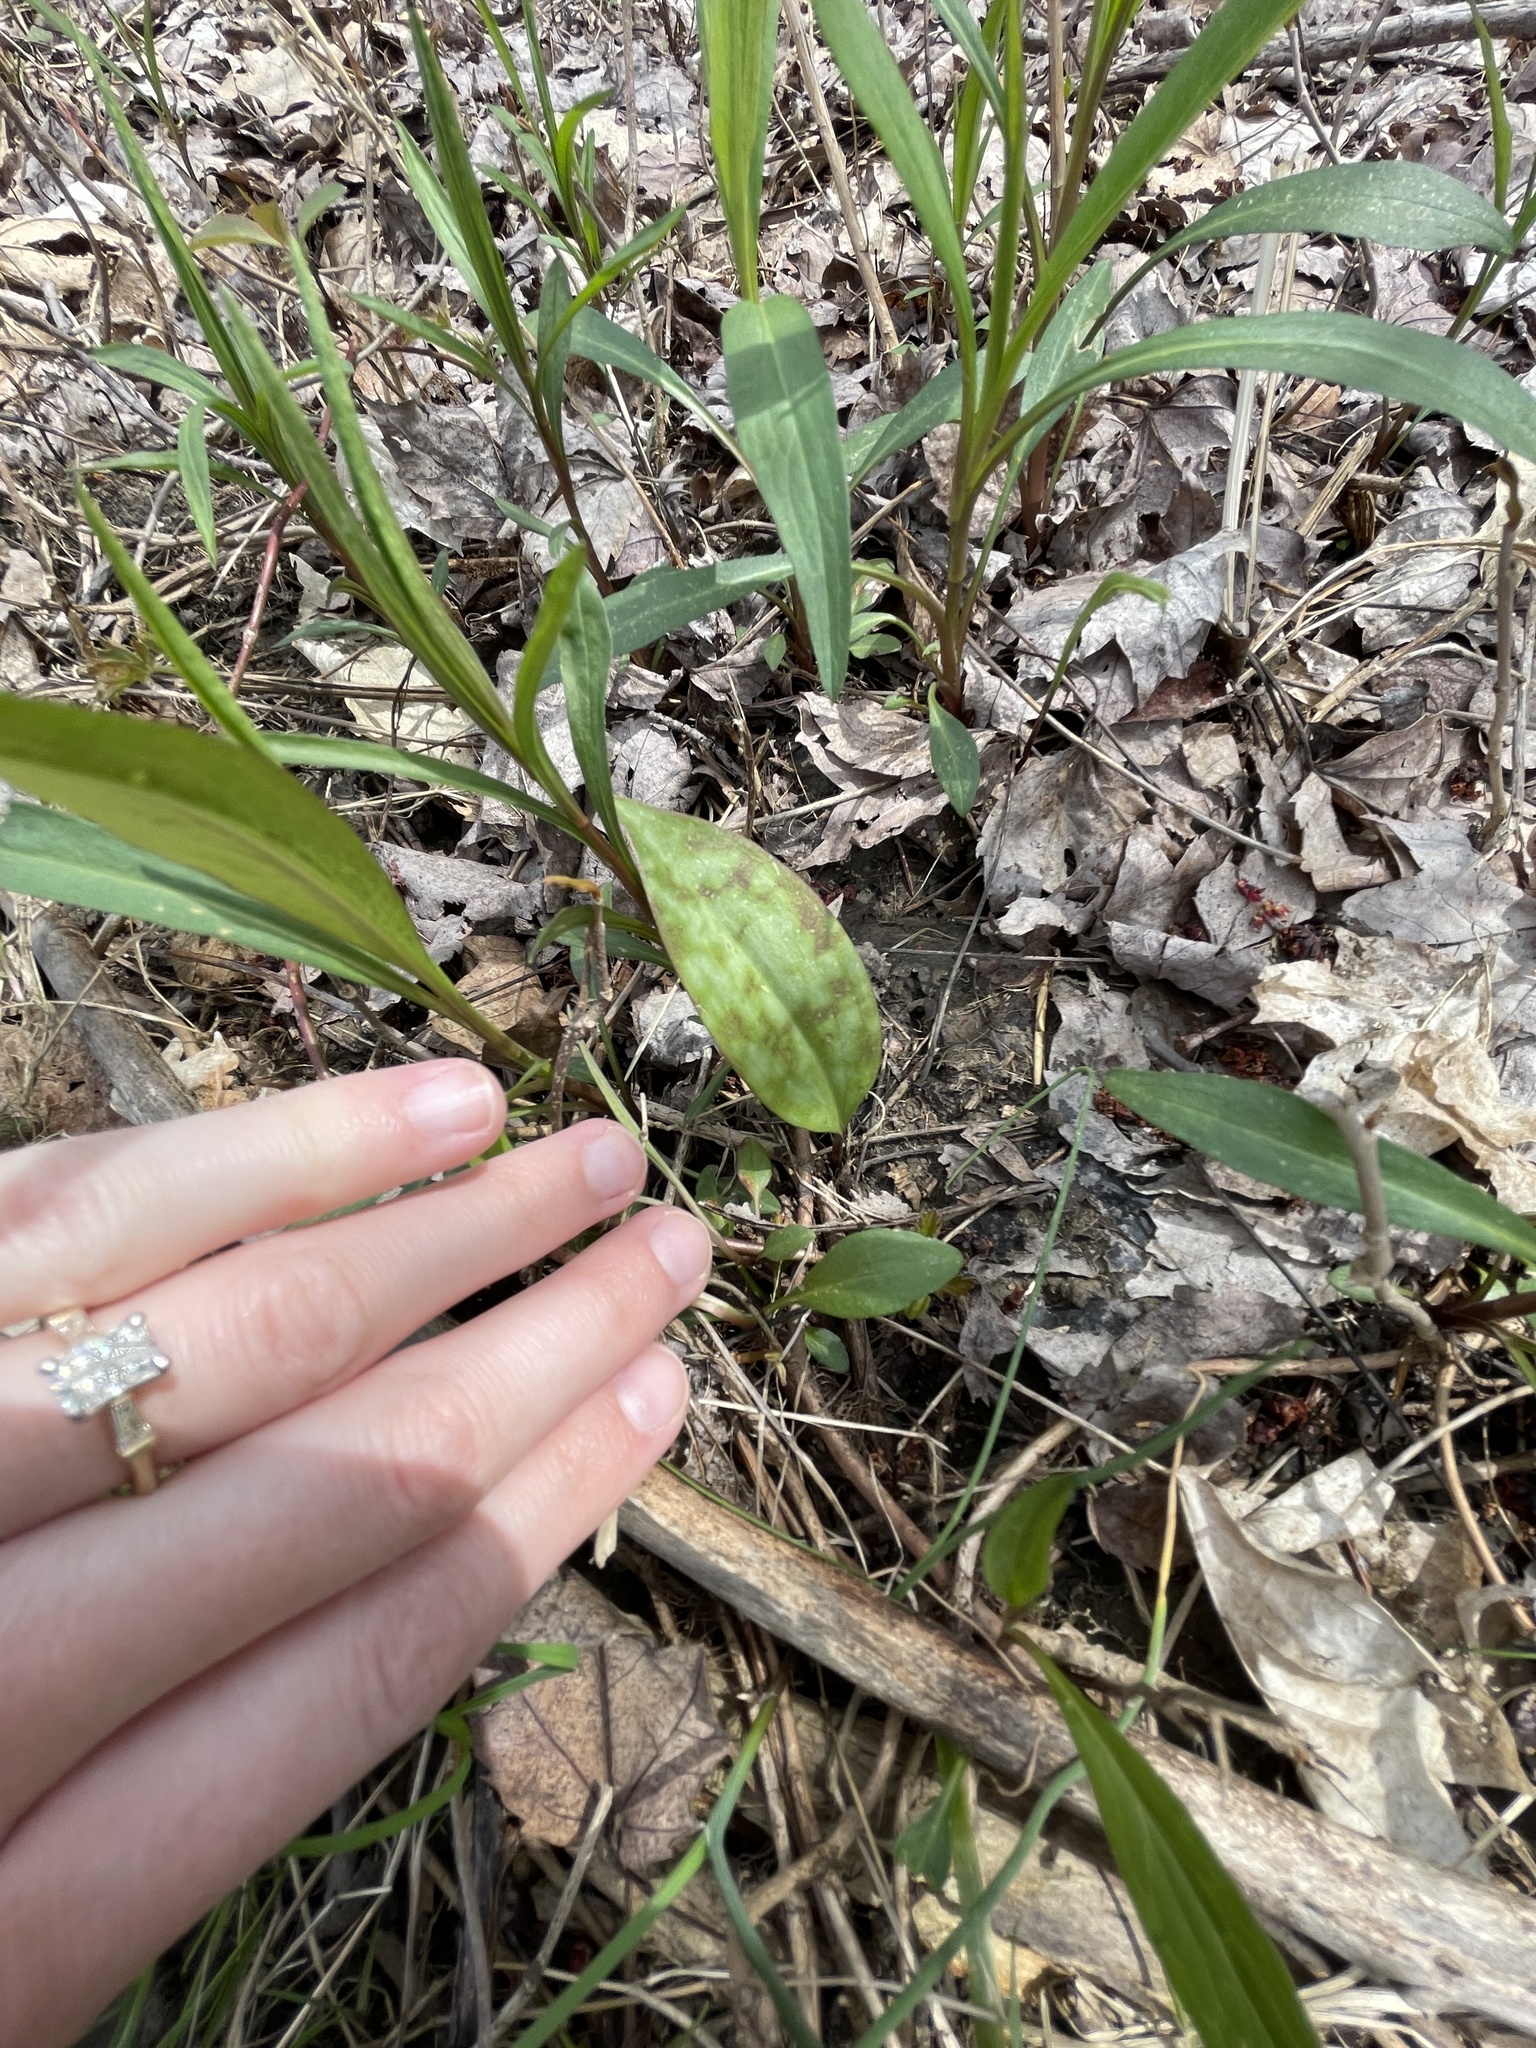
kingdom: Plantae
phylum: Tracheophyta
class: Liliopsida
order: Liliales
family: Liliaceae
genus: Erythronium
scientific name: Erythronium americanum
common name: Yellow adder's-tongue
